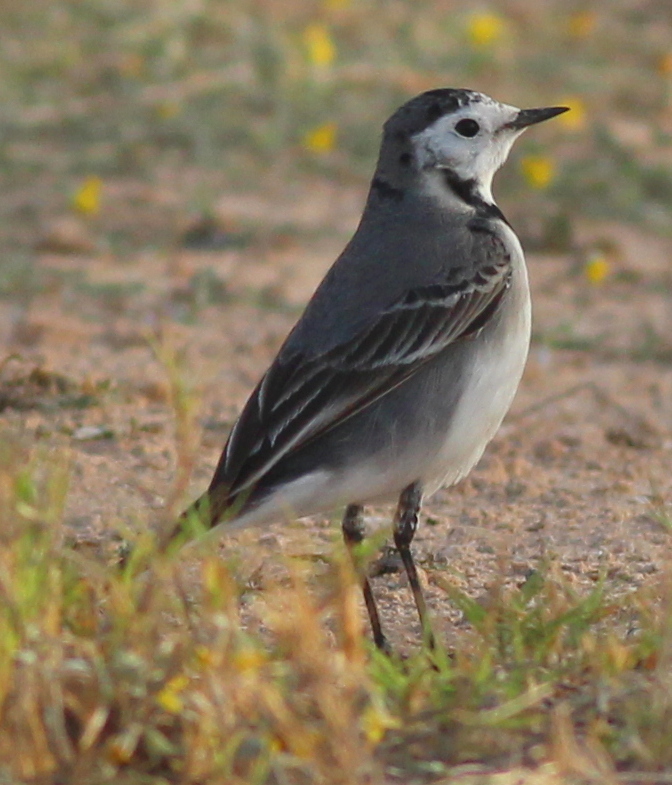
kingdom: Animalia
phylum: Chordata
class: Aves
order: Passeriformes
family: Motacillidae
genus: Motacilla
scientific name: Motacilla alba
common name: White wagtail
